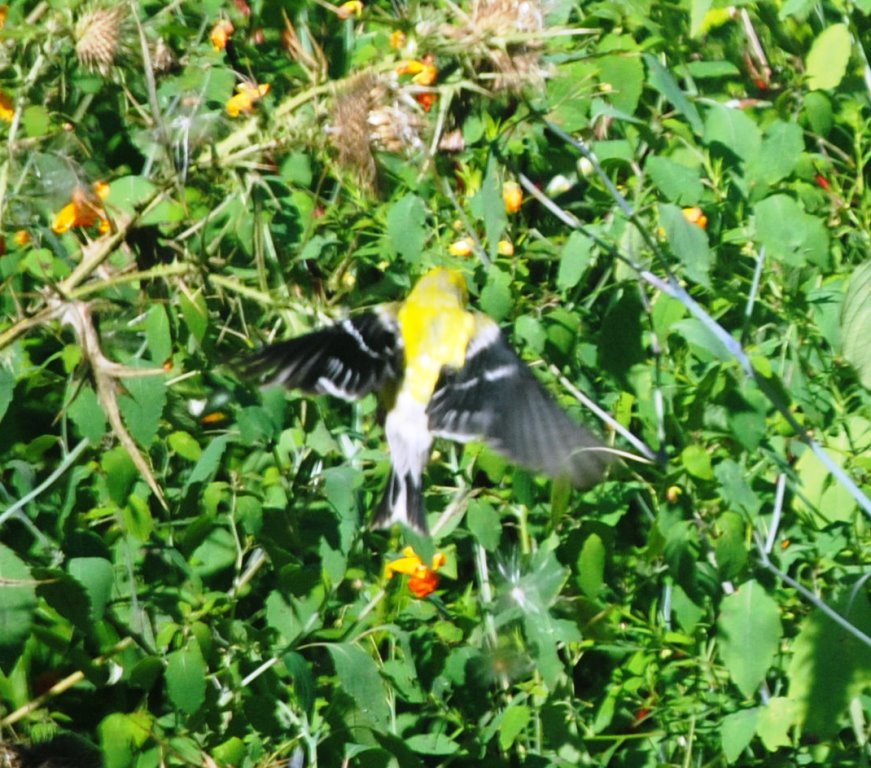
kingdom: Animalia
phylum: Chordata
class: Aves
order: Passeriformes
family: Fringillidae
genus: Spinus
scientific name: Spinus tristis
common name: American goldfinch
